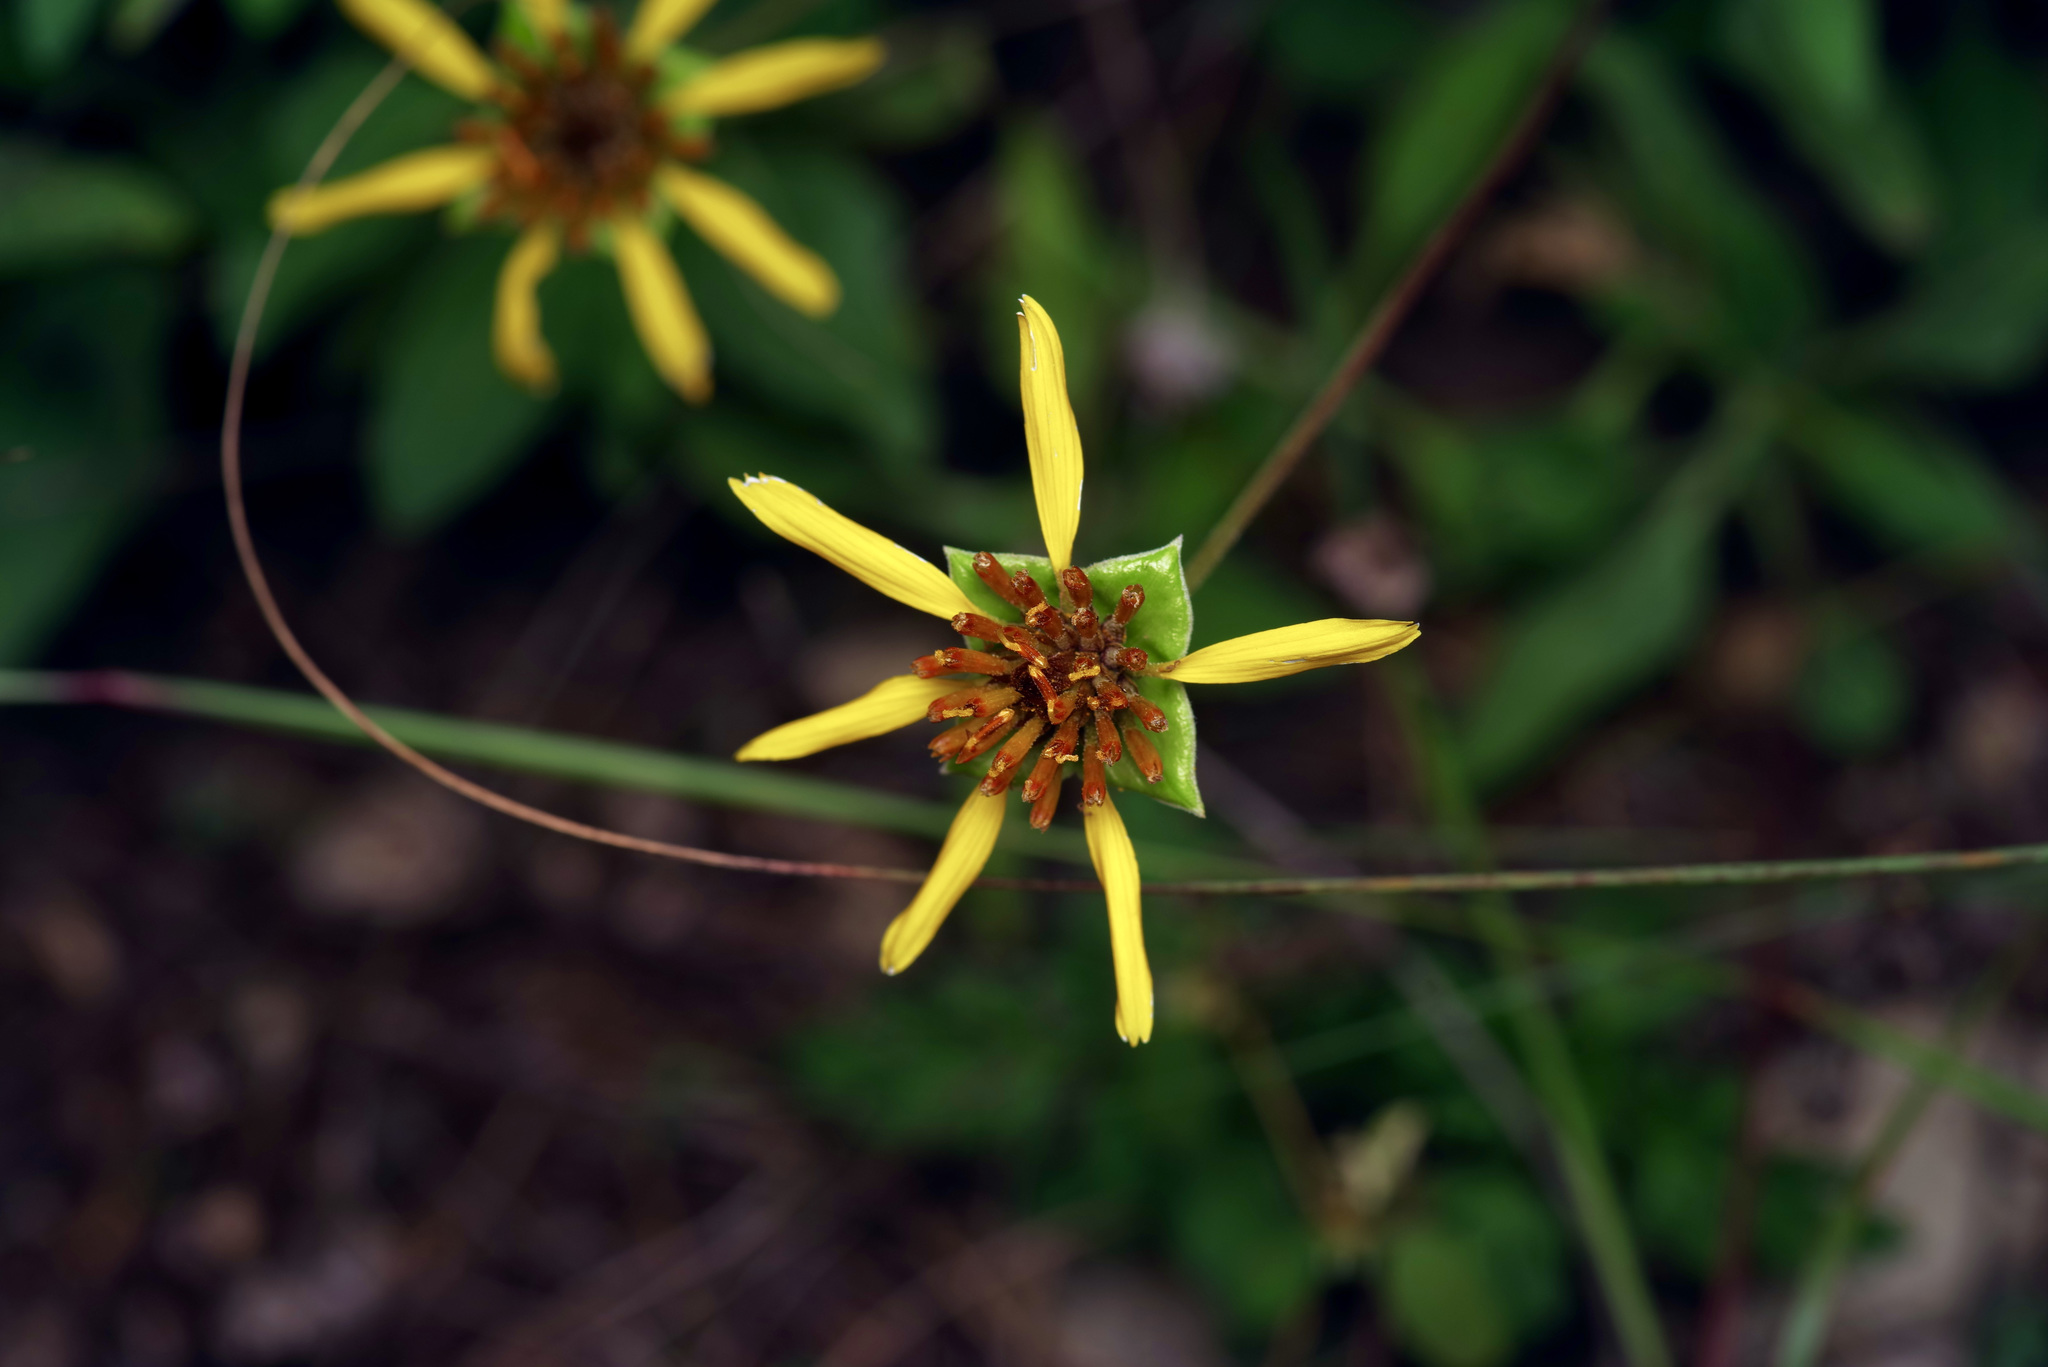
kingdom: Plantae
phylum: Tracheophyta
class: Magnoliopsida
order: Asterales
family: Asteraceae
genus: Tetragonotheca
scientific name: Tetragonotheca texana
